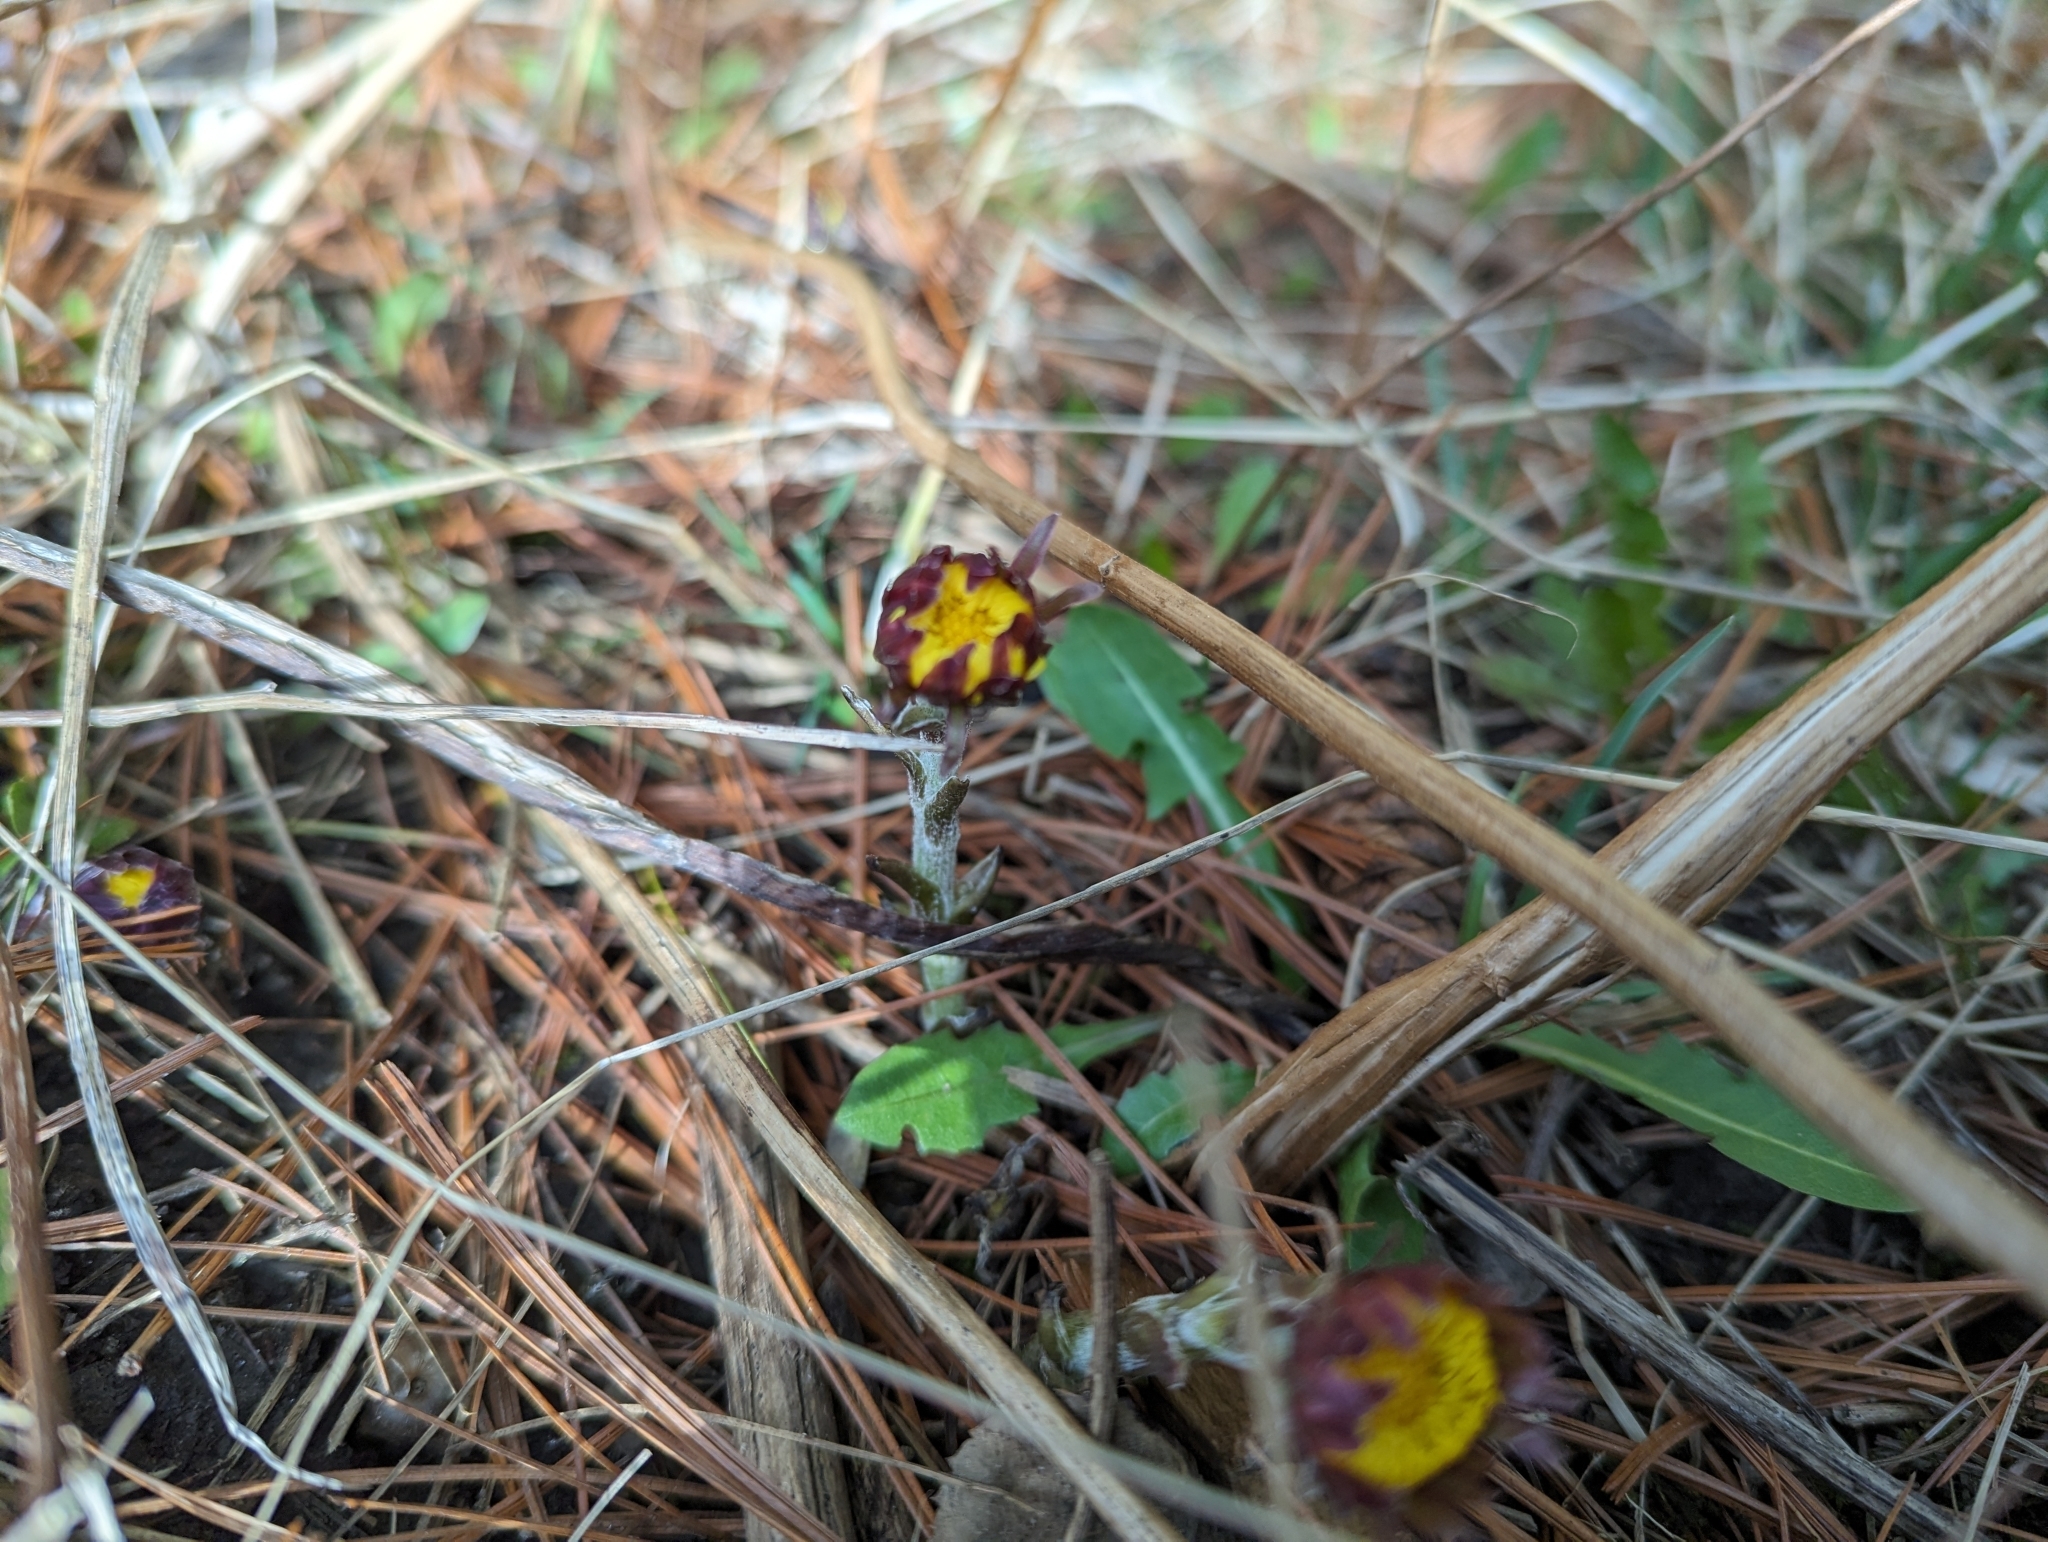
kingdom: Plantae
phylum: Tracheophyta
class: Magnoliopsida
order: Asterales
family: Asteraceae
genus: Tussilago
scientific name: Tussilago farfara
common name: Coltsfoot
